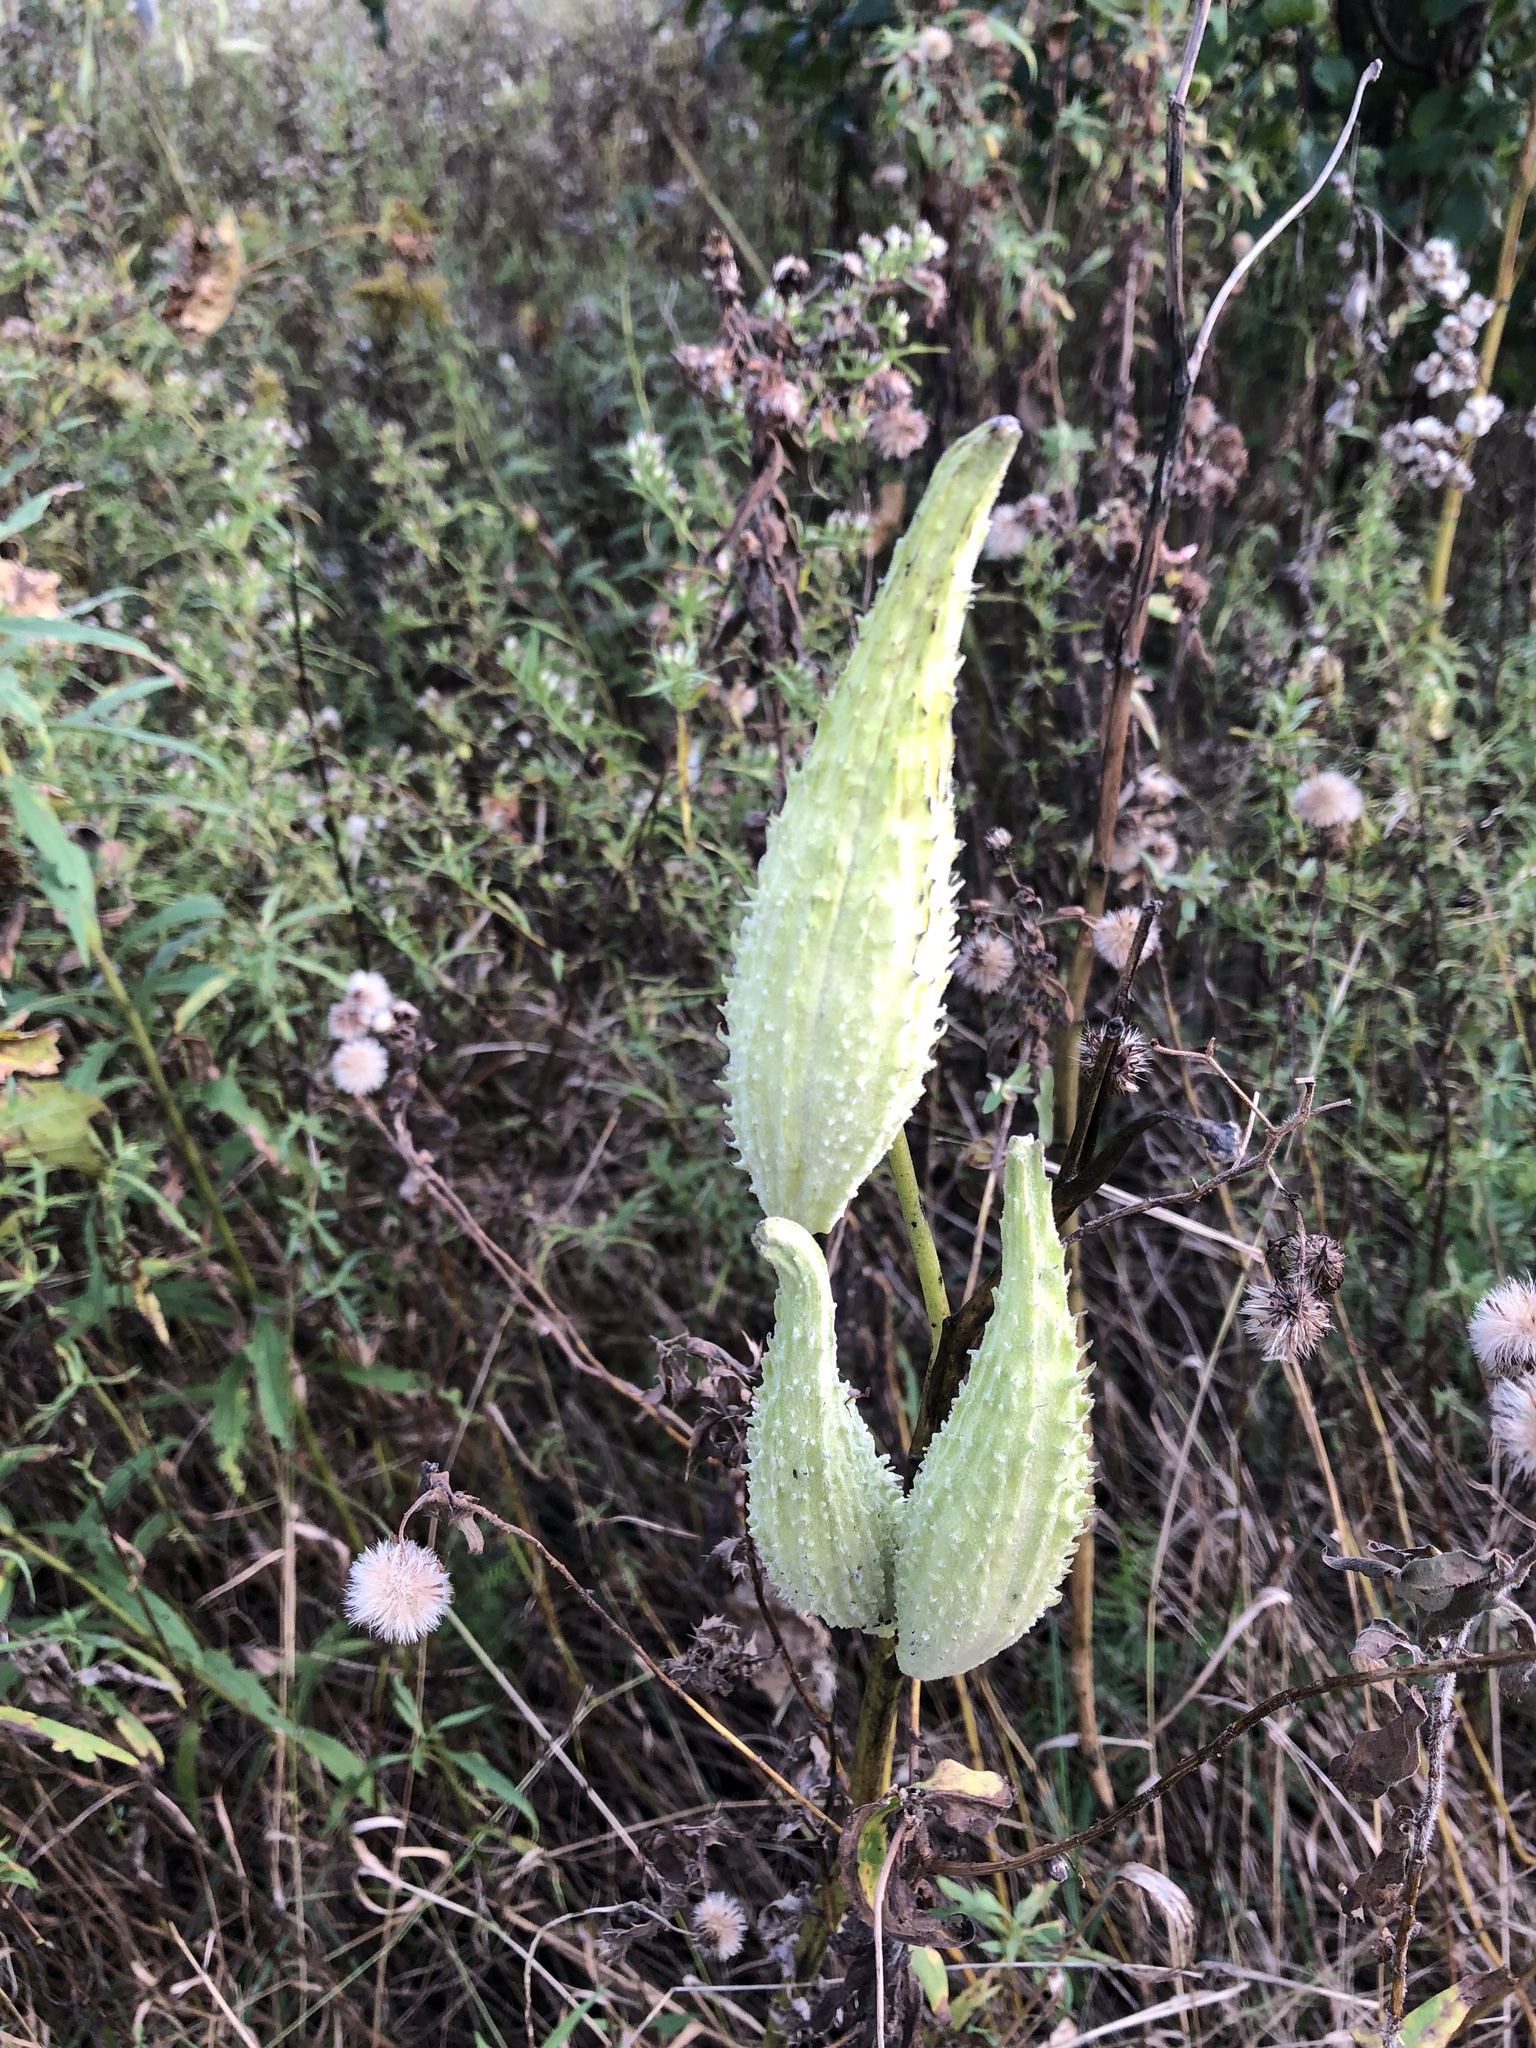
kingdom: Plantae
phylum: Tracheophyta
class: Magnoliopsida
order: Gentianales
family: Apocynaceae
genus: Asclepias
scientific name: Asclepias syriaca
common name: Common milkweed
